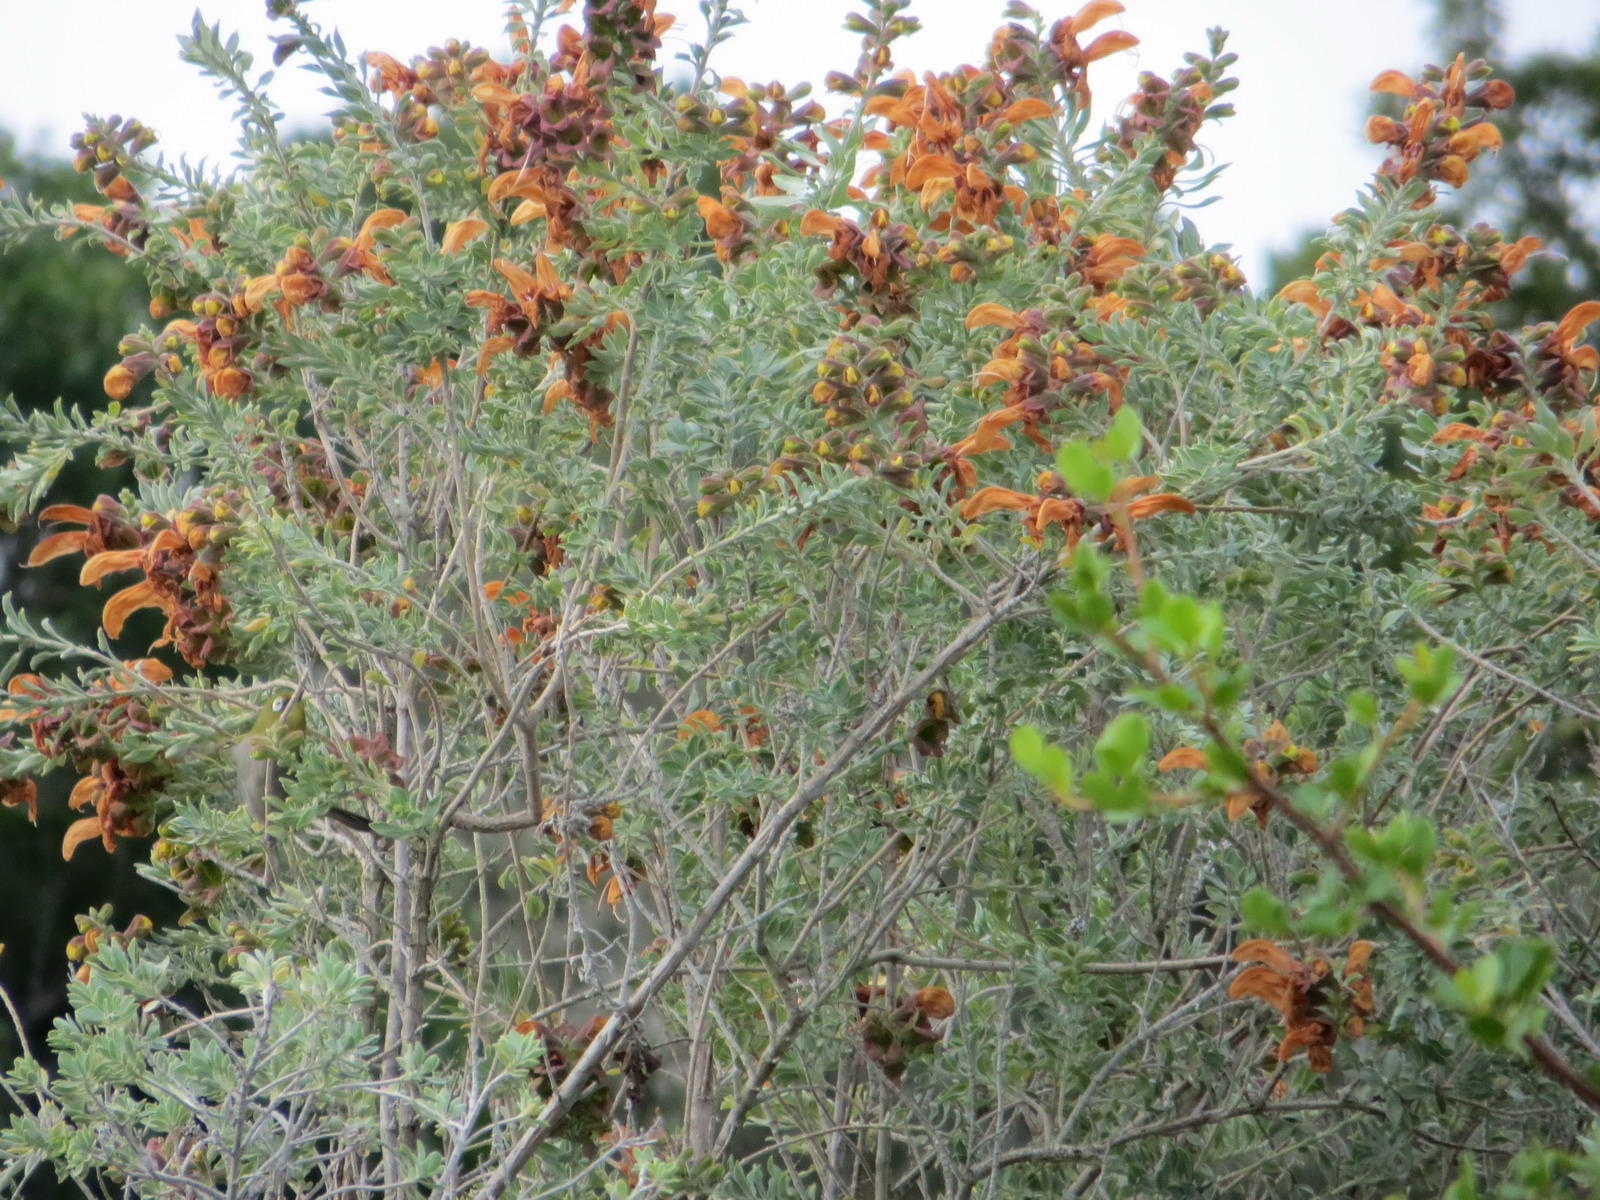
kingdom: Plantae
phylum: Tracheophyta
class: Magnoliopsida
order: Lamiales
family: Lamiaceae
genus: Salvia
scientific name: Salvia aurea
